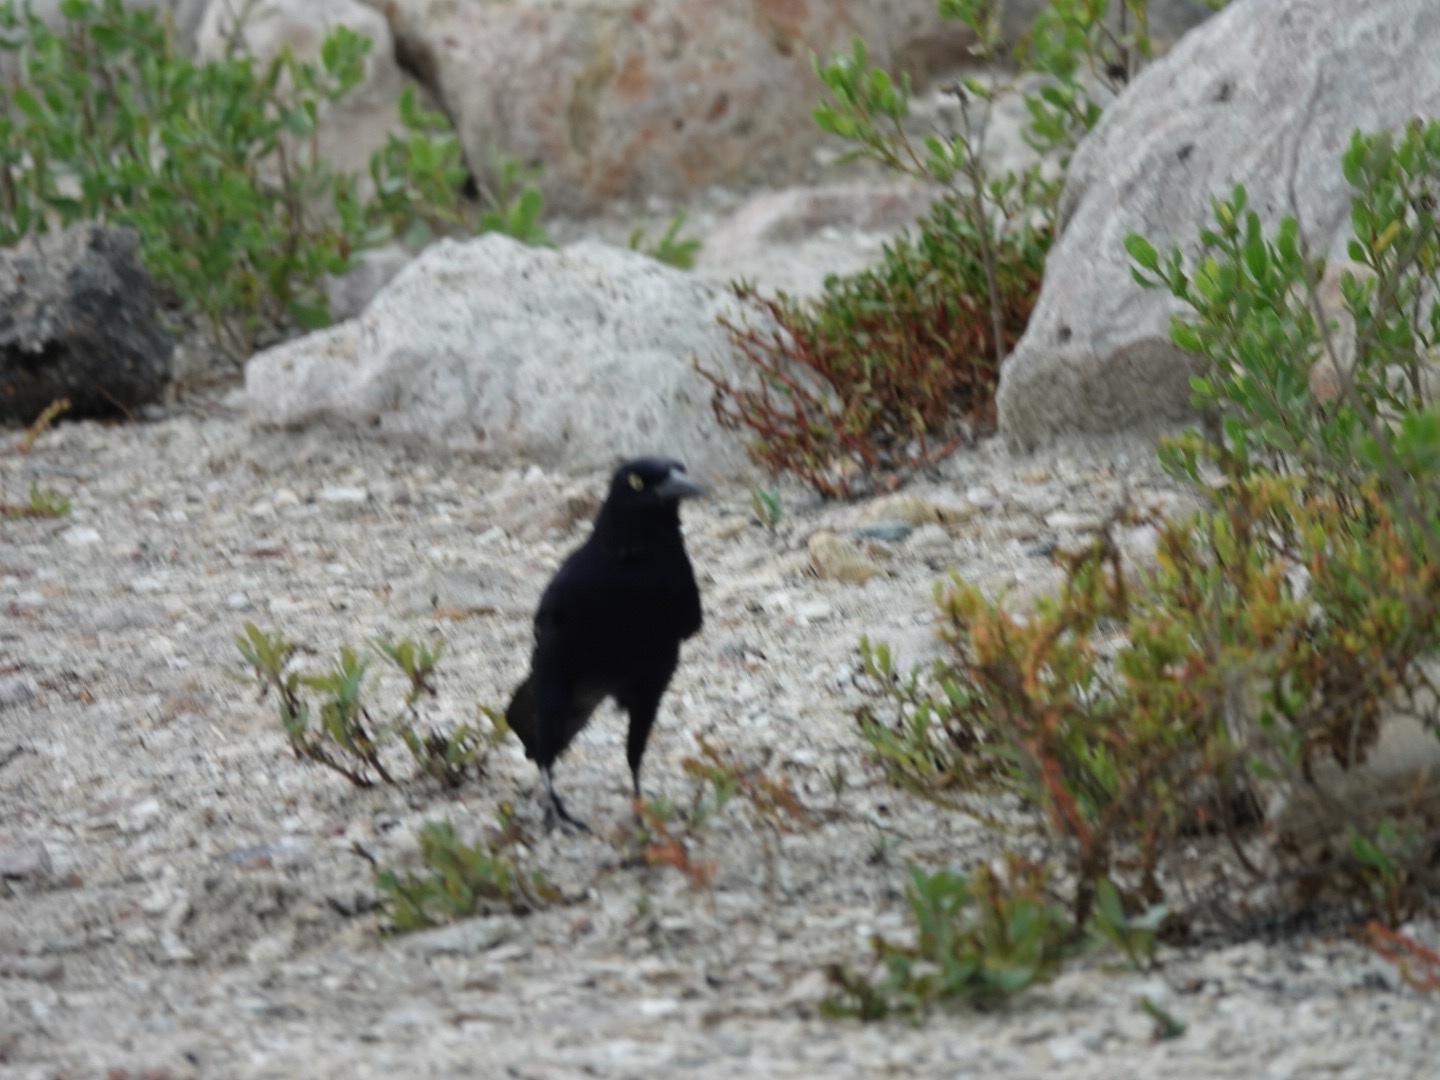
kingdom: Animalia
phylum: Chordata
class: Aves
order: Passeriformes
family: Icteridae
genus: Quiscalus
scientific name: Quiscalus mexicanus
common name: Great-tailed grackle
